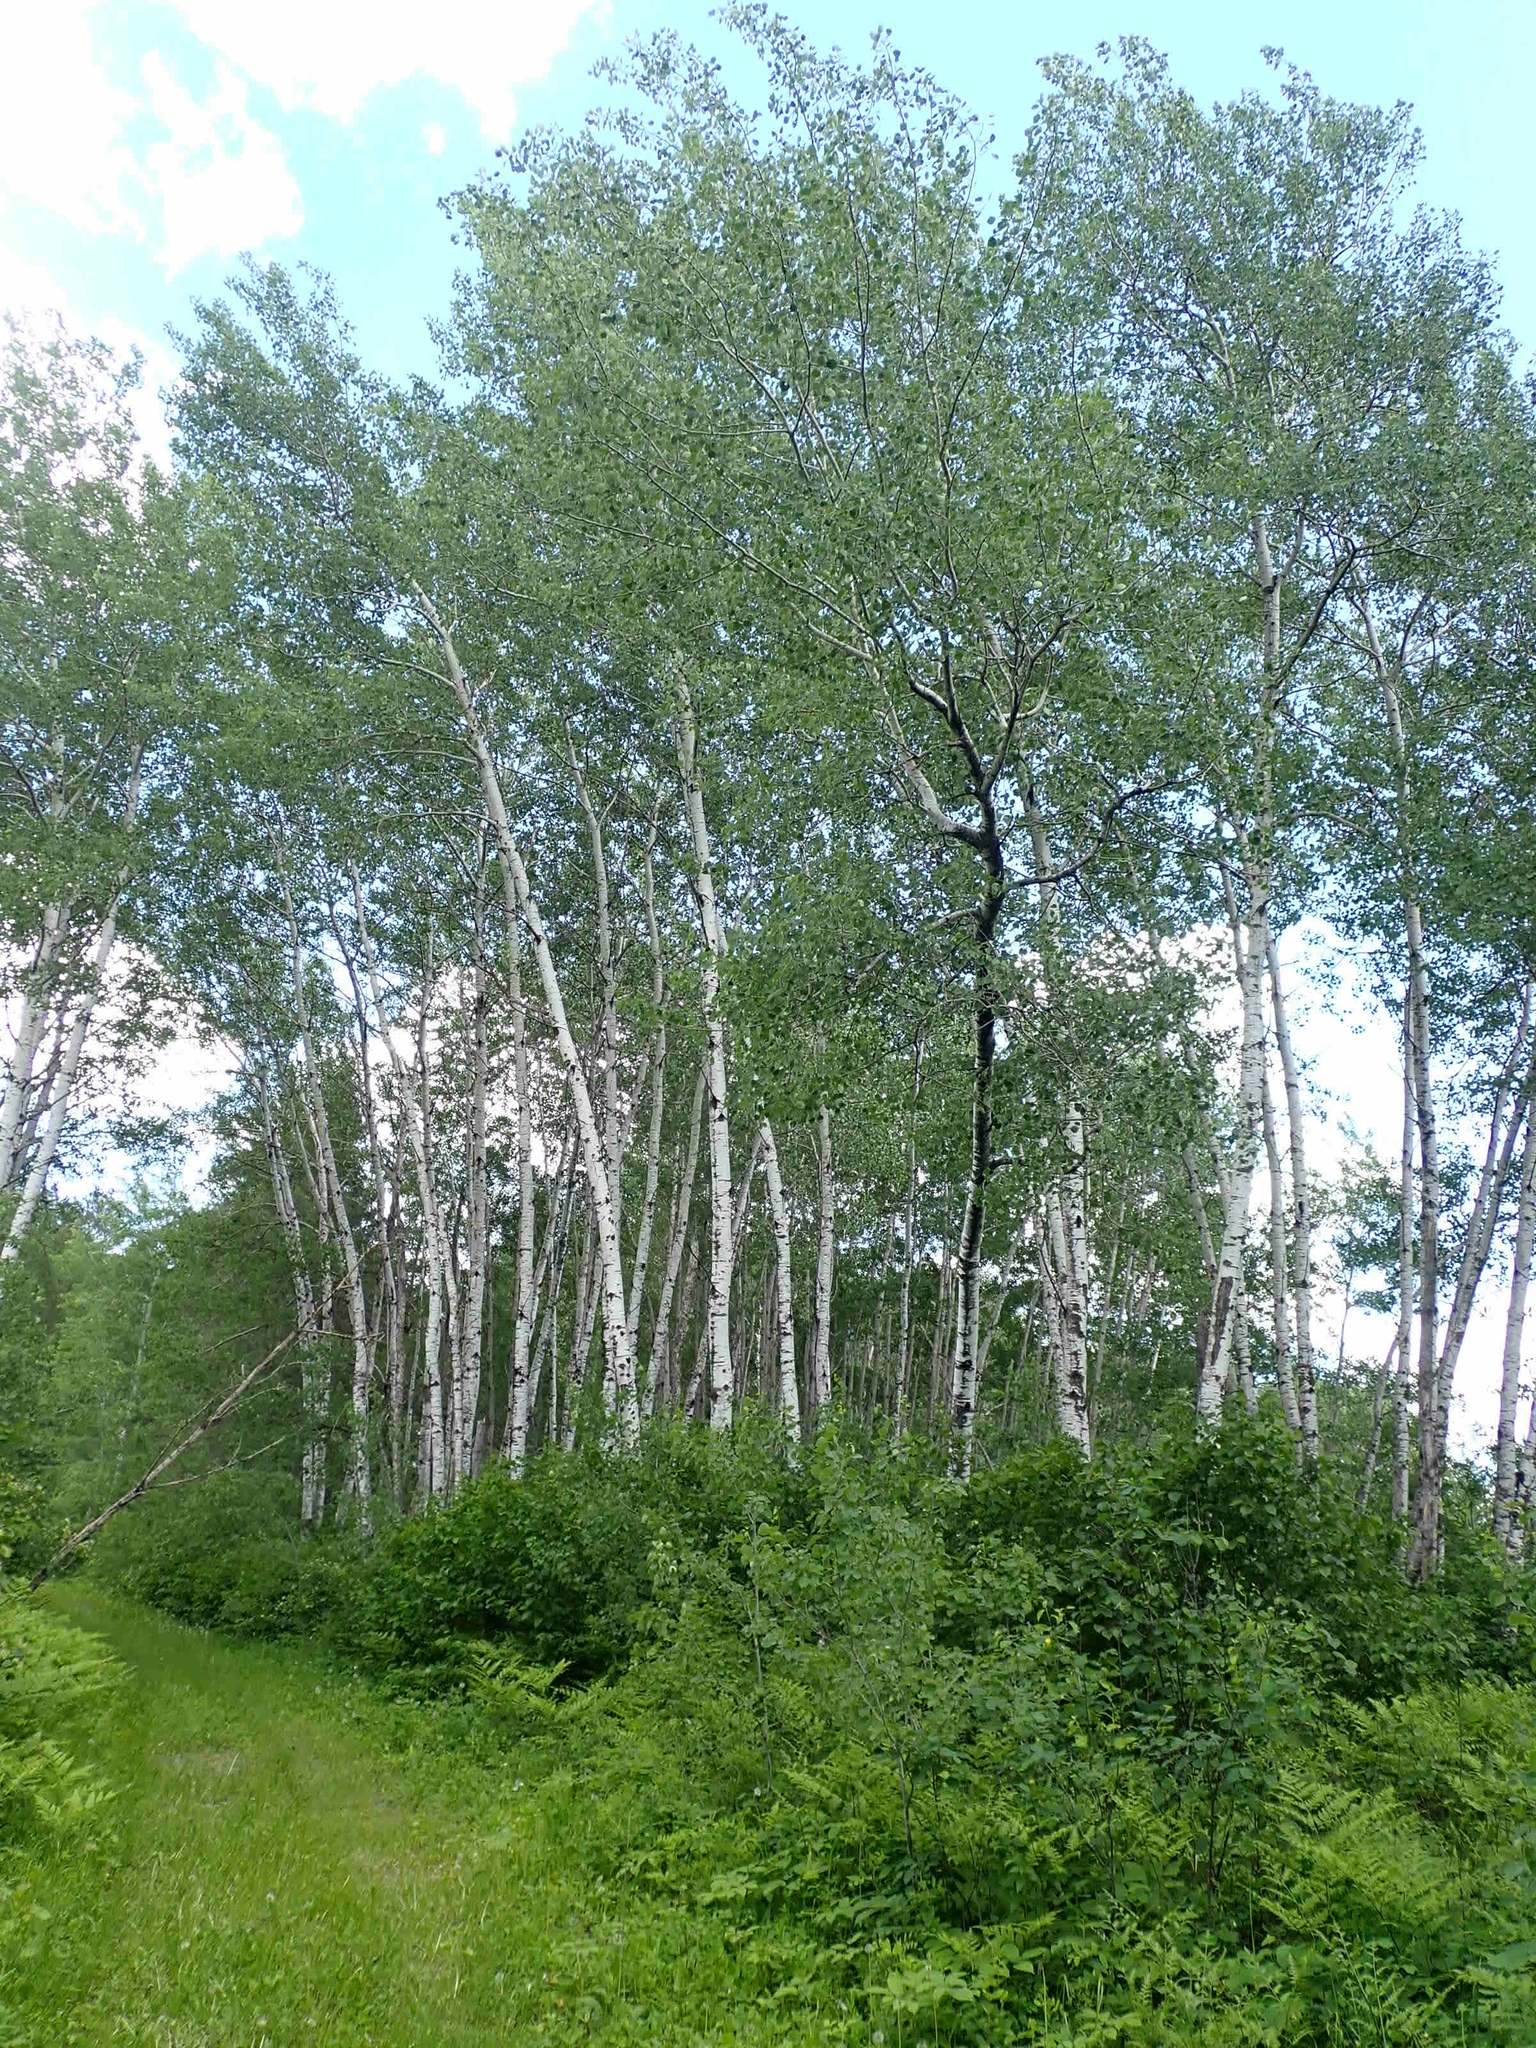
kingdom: Plantae
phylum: Tracheophyta
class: Magnoliopsida
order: Malpighiales
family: Salicaceae
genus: Populus
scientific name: Populus tremuloides
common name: Quaking aspen
